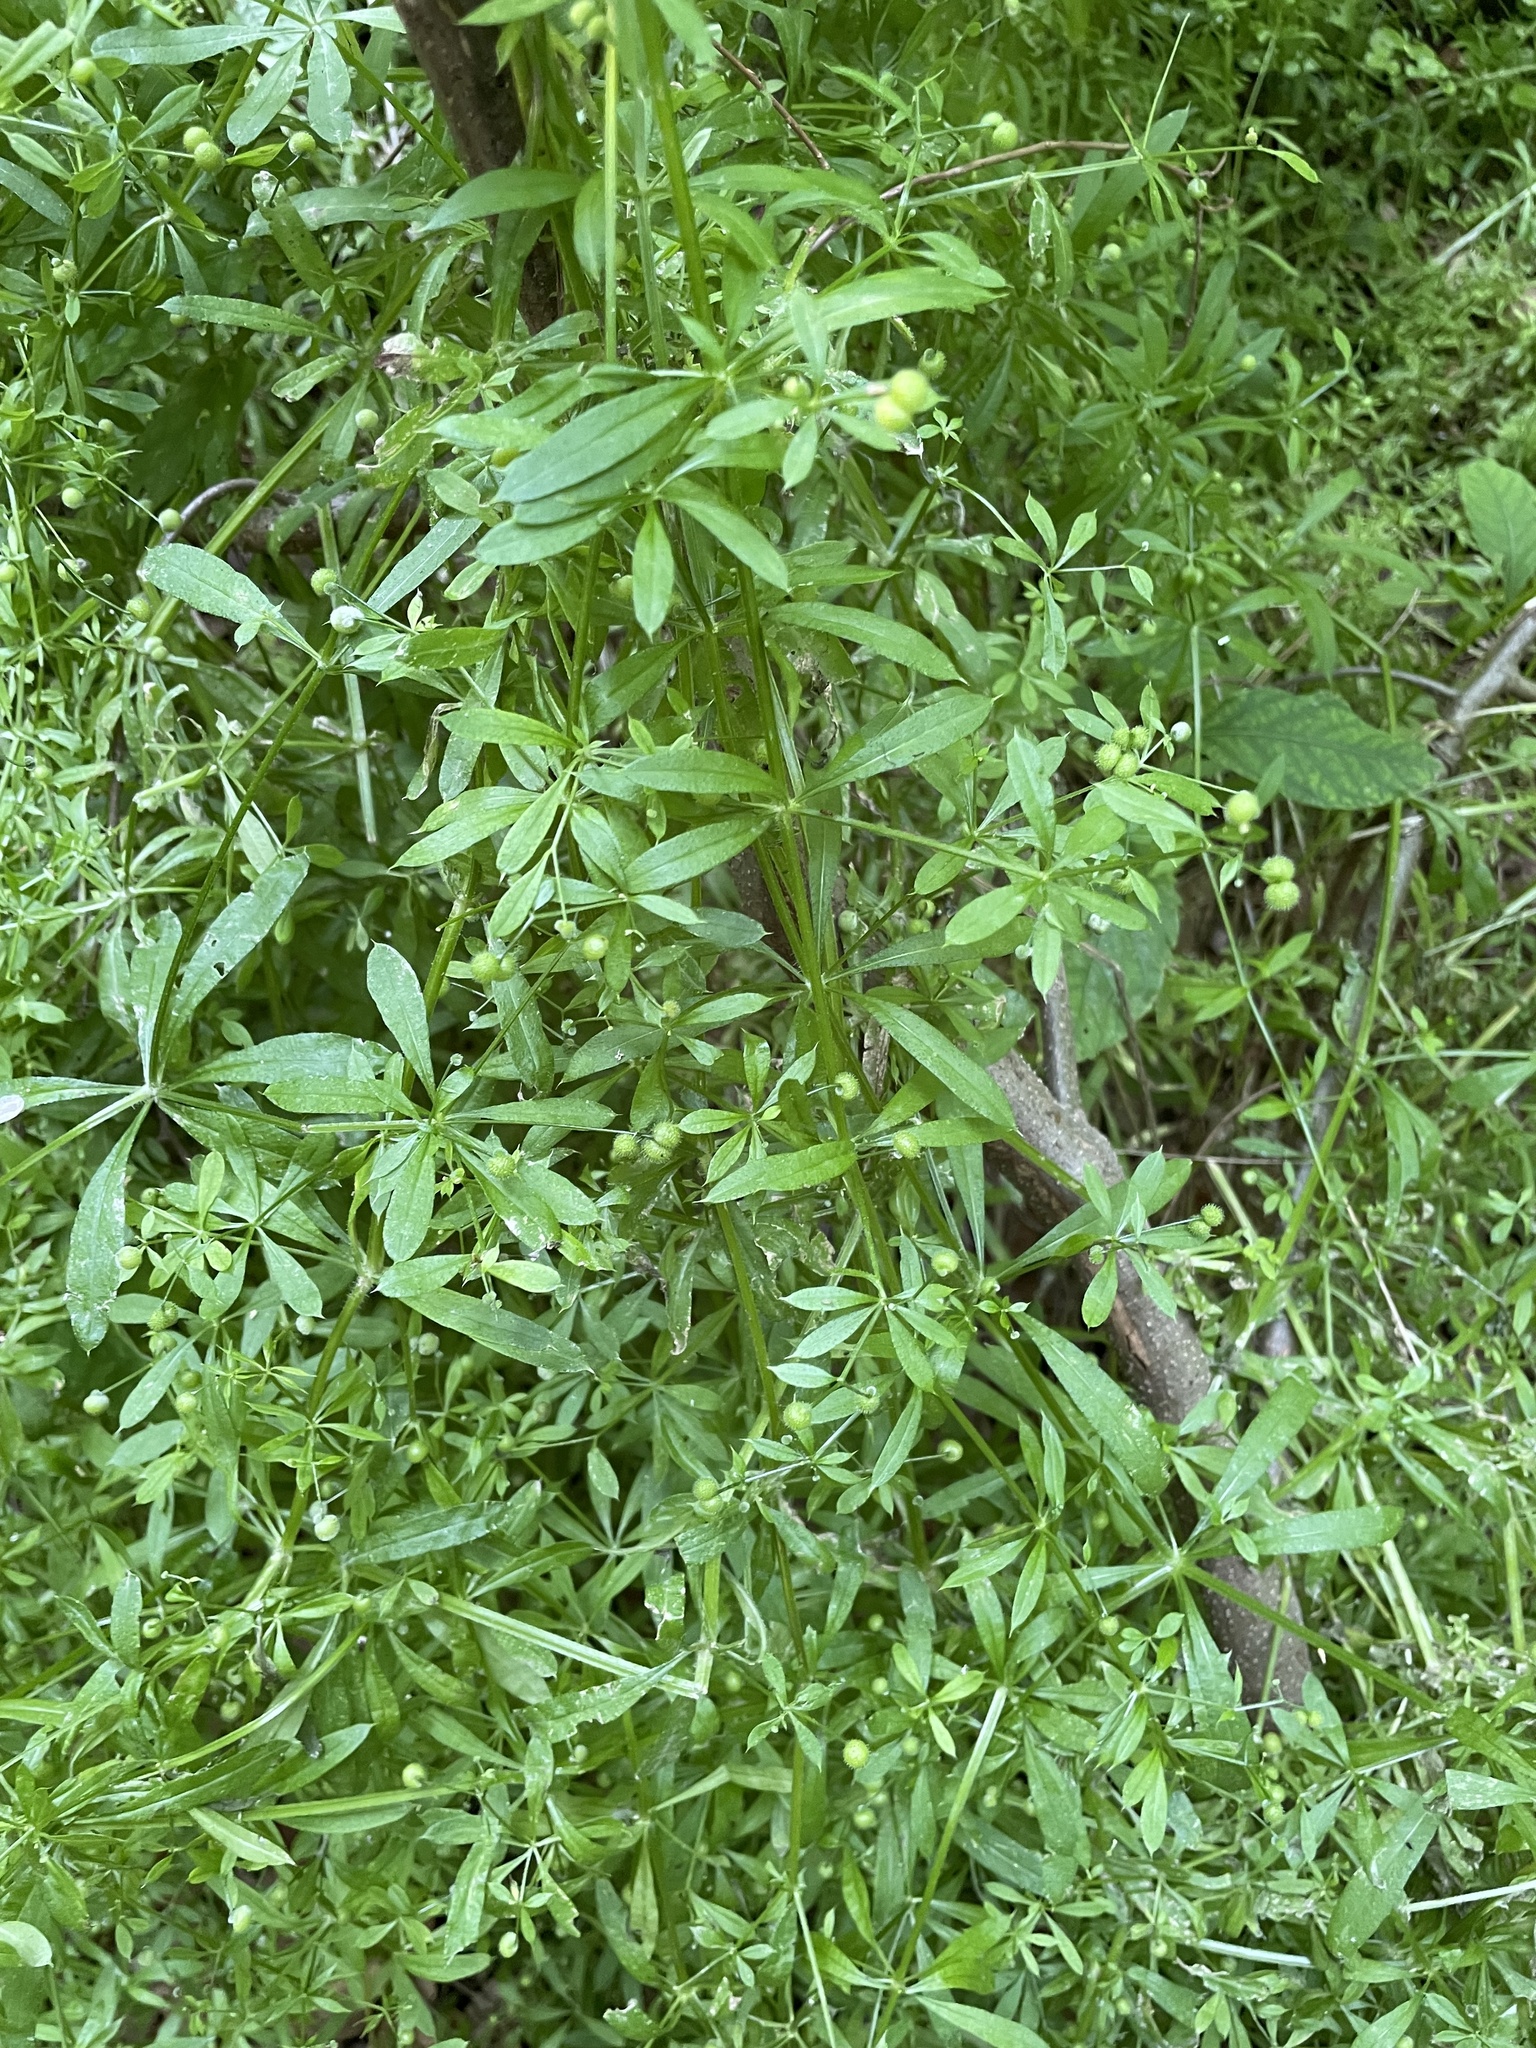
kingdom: Plantae
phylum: Tracheophyta
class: Magnoliopsida
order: Gentianales
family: Rubiaceae
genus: Galium
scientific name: Galium aparine
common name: Cleavers
